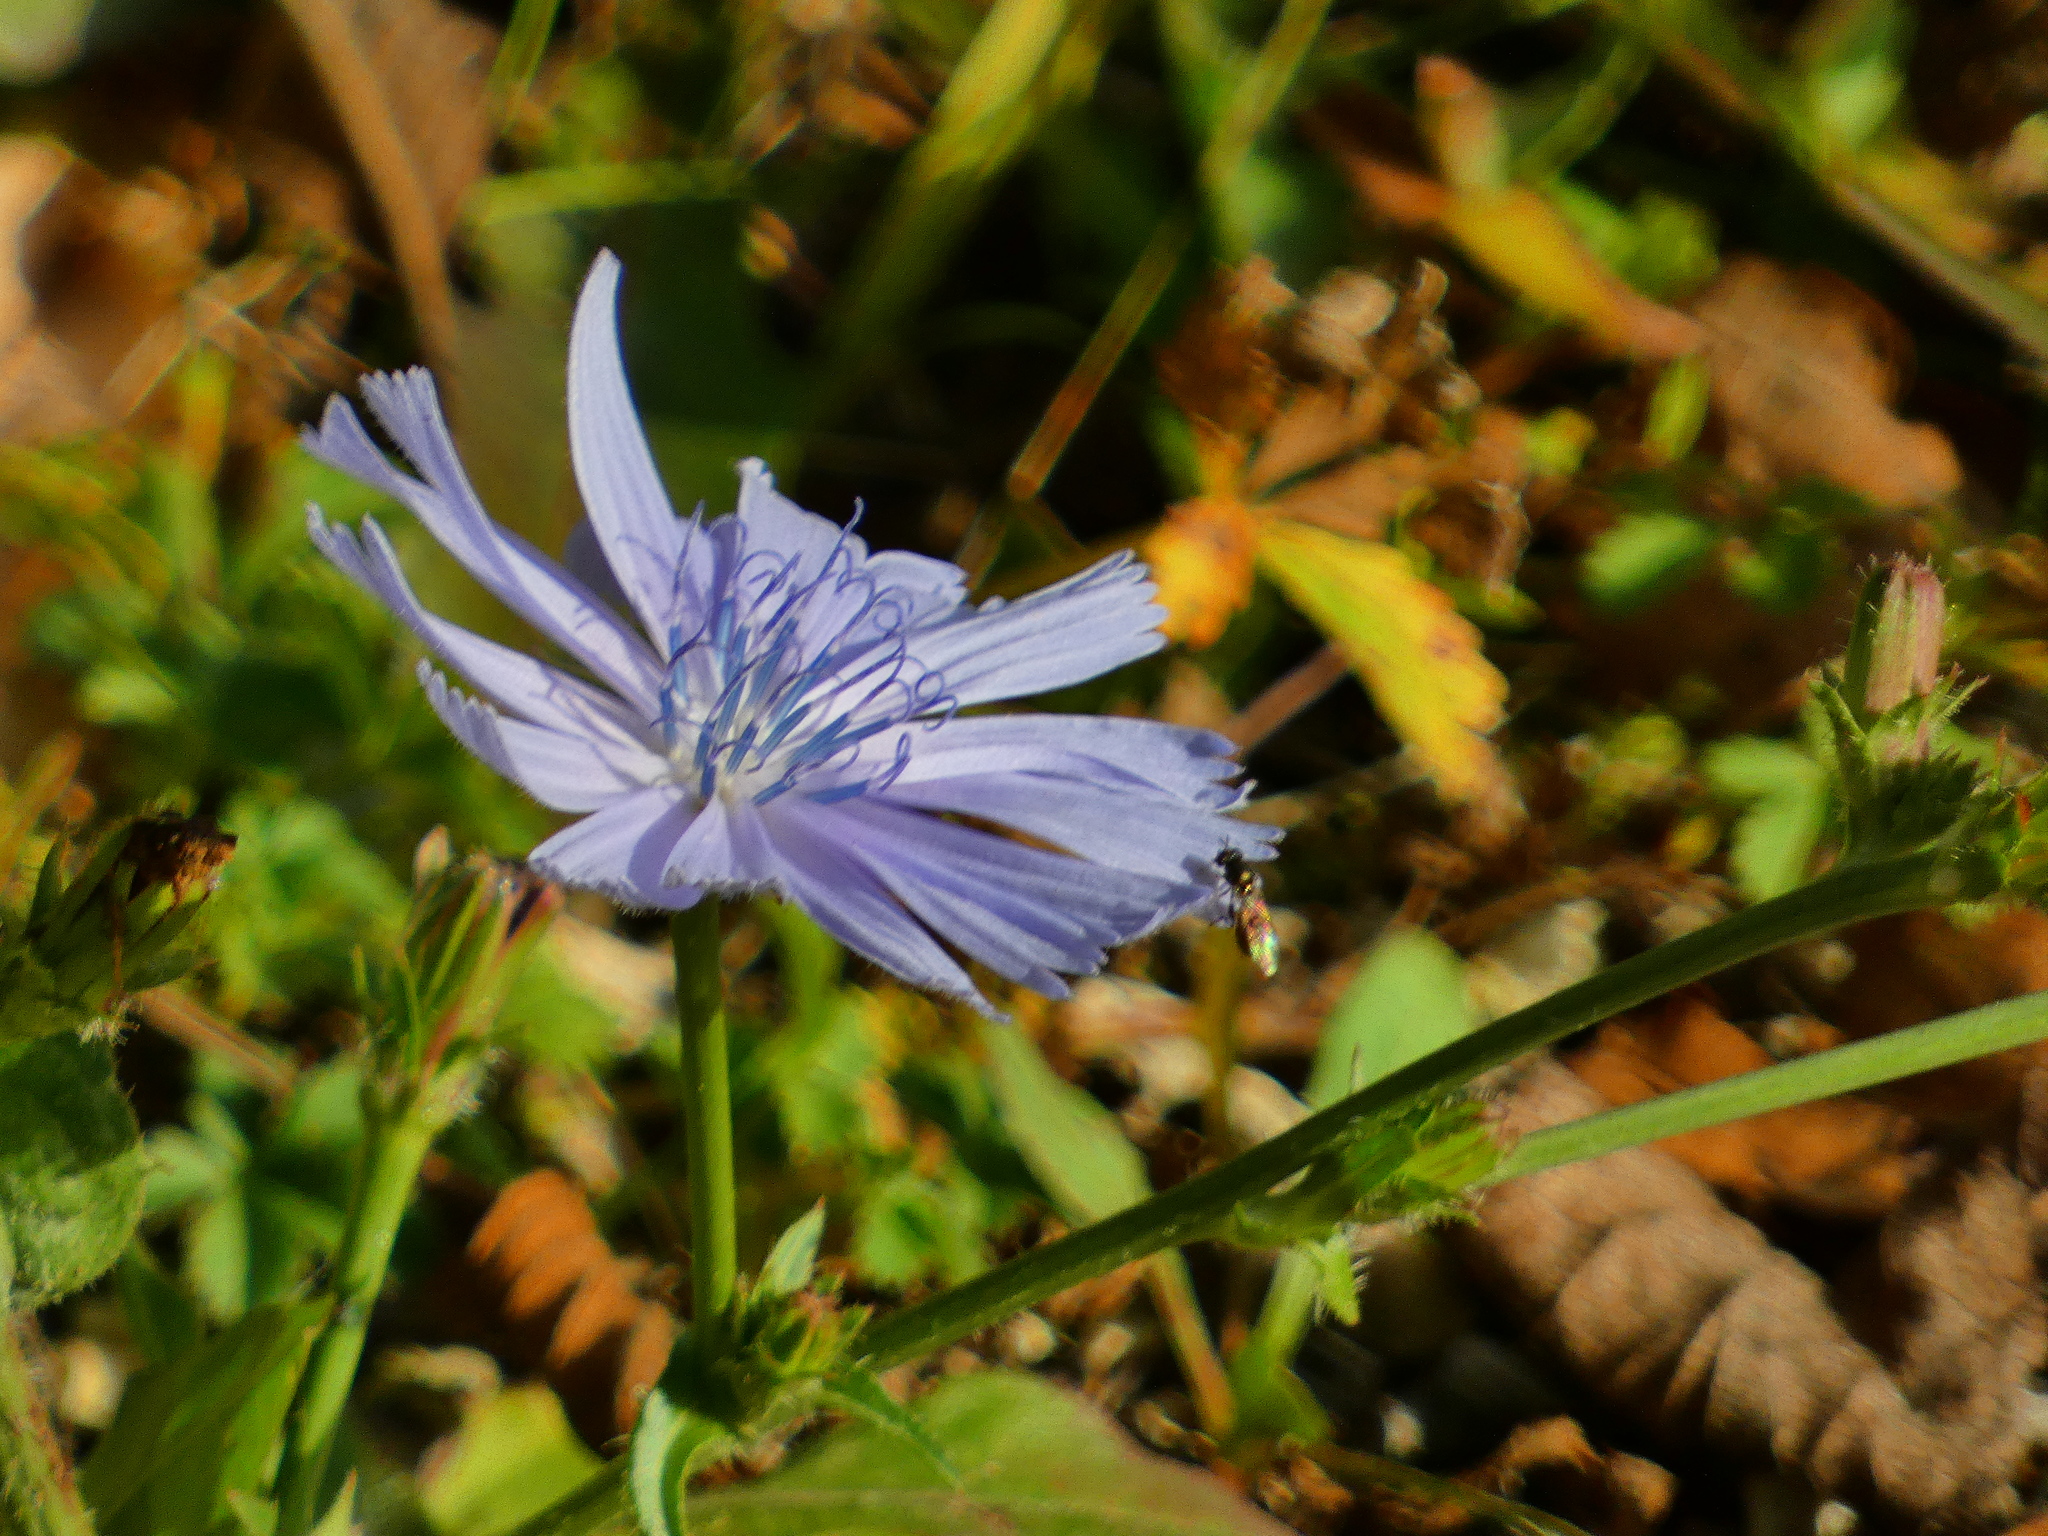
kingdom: Plantae
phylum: Tracheophyta
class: Magnoliopsida
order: Asterales
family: Asteraceae
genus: Cichorium
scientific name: Cichorium intybus
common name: Chicory
